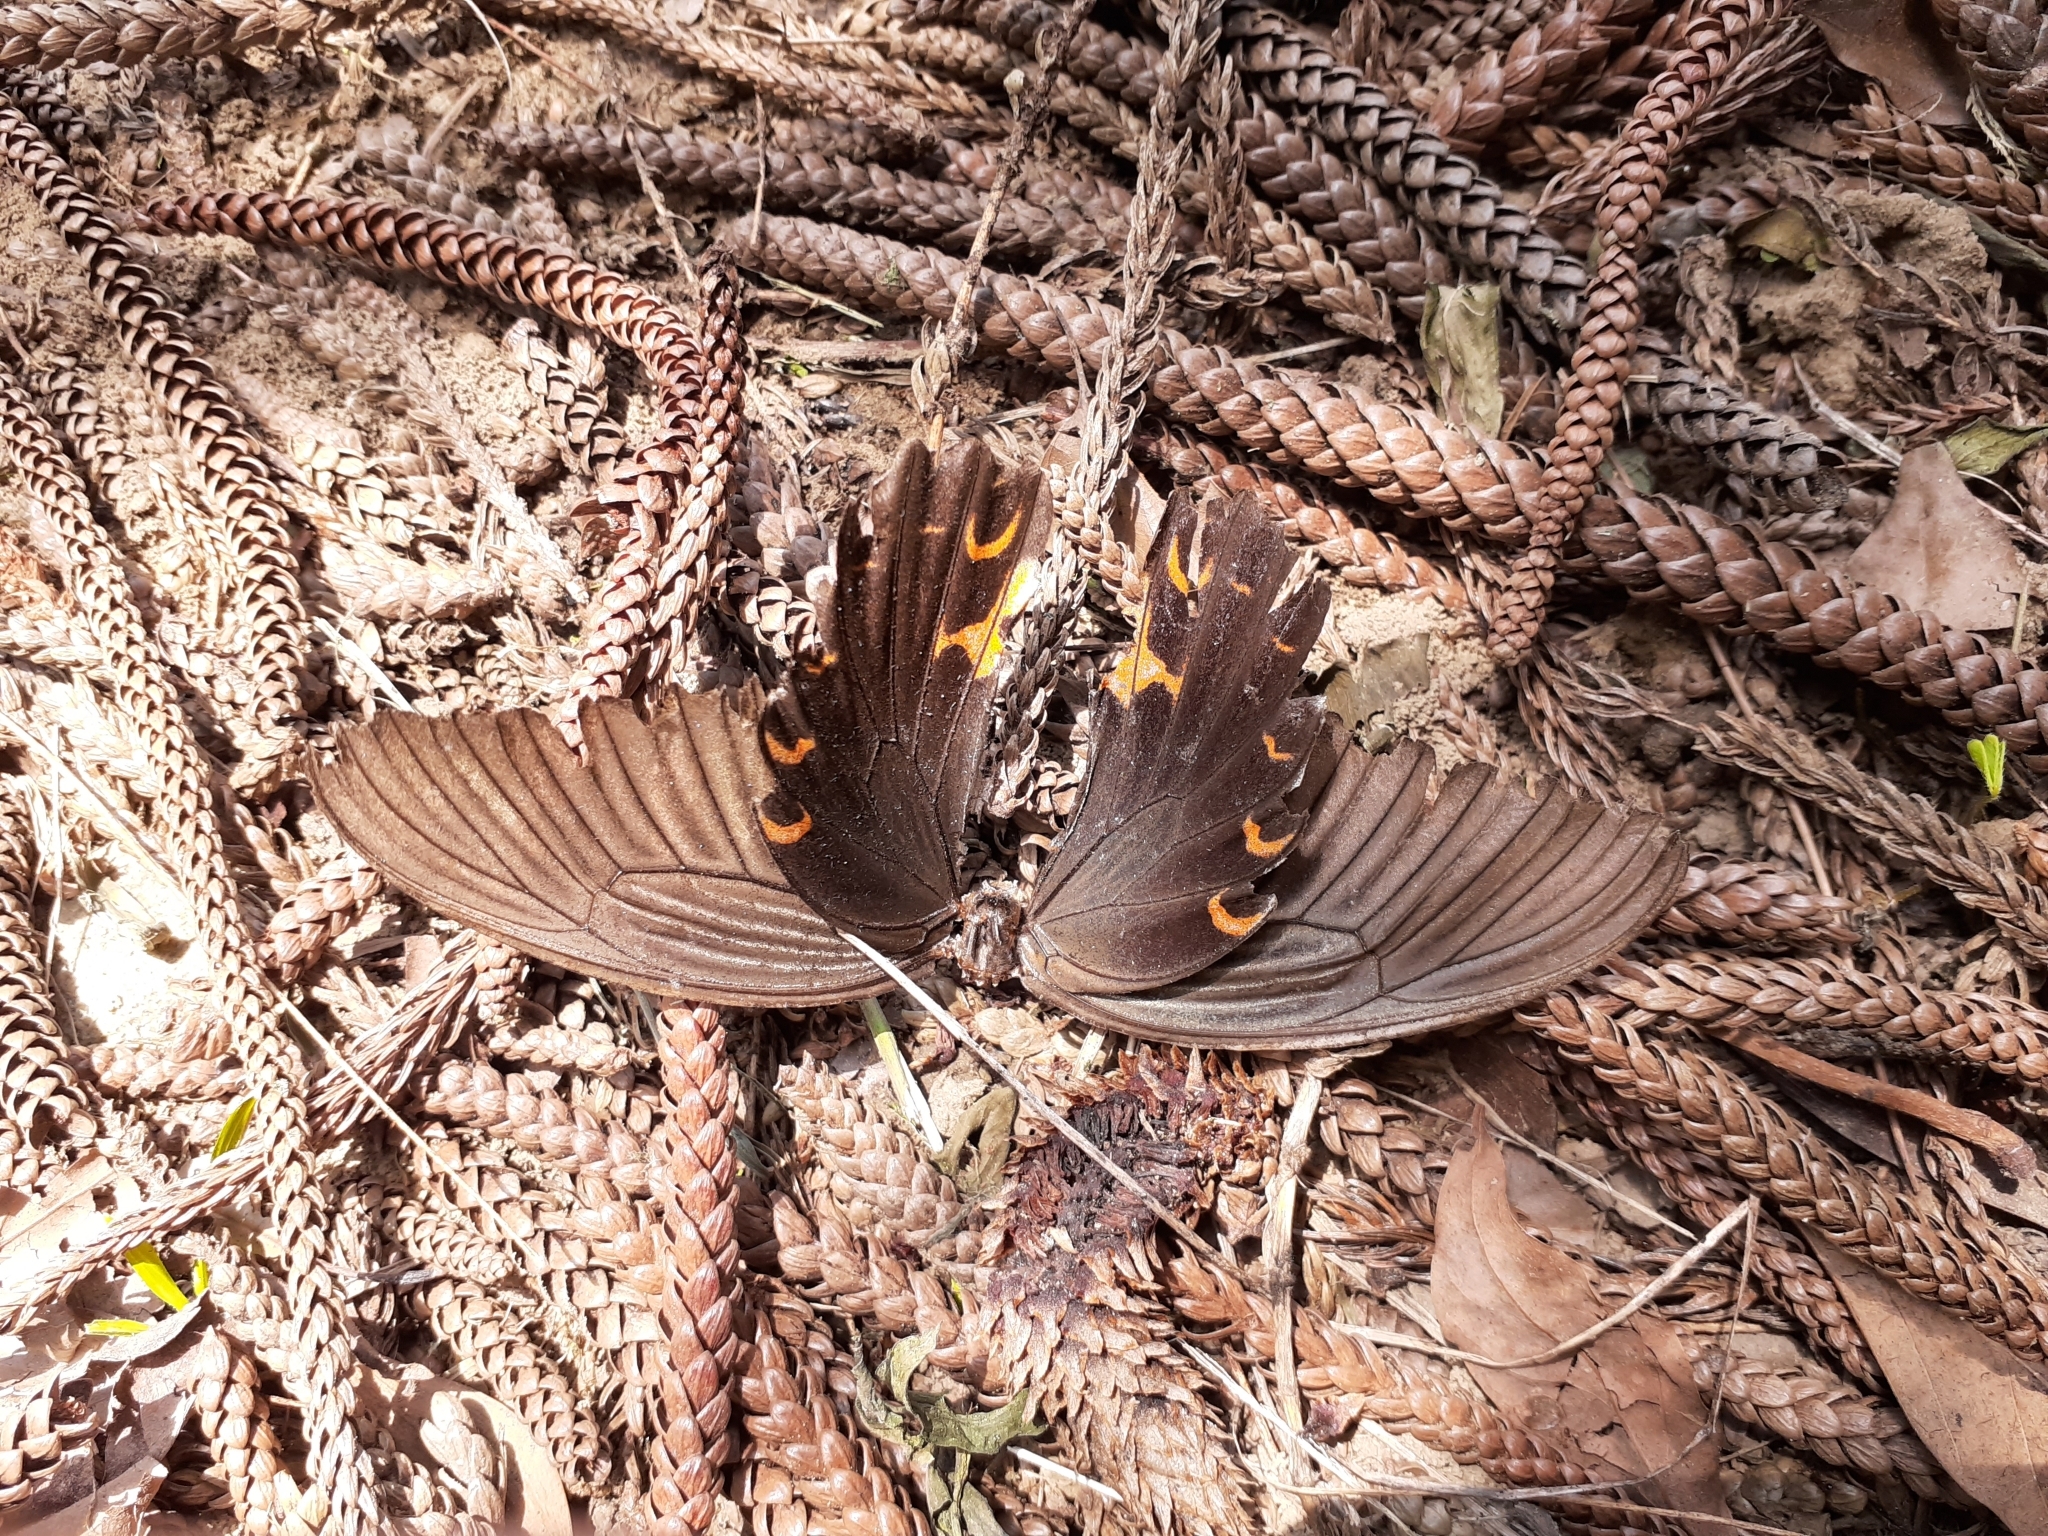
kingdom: Animalia
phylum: Arthropoda
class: Insecta
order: Lepidoptera
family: Papilionidae
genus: Papilio
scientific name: Papilio protenor
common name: Spangle
